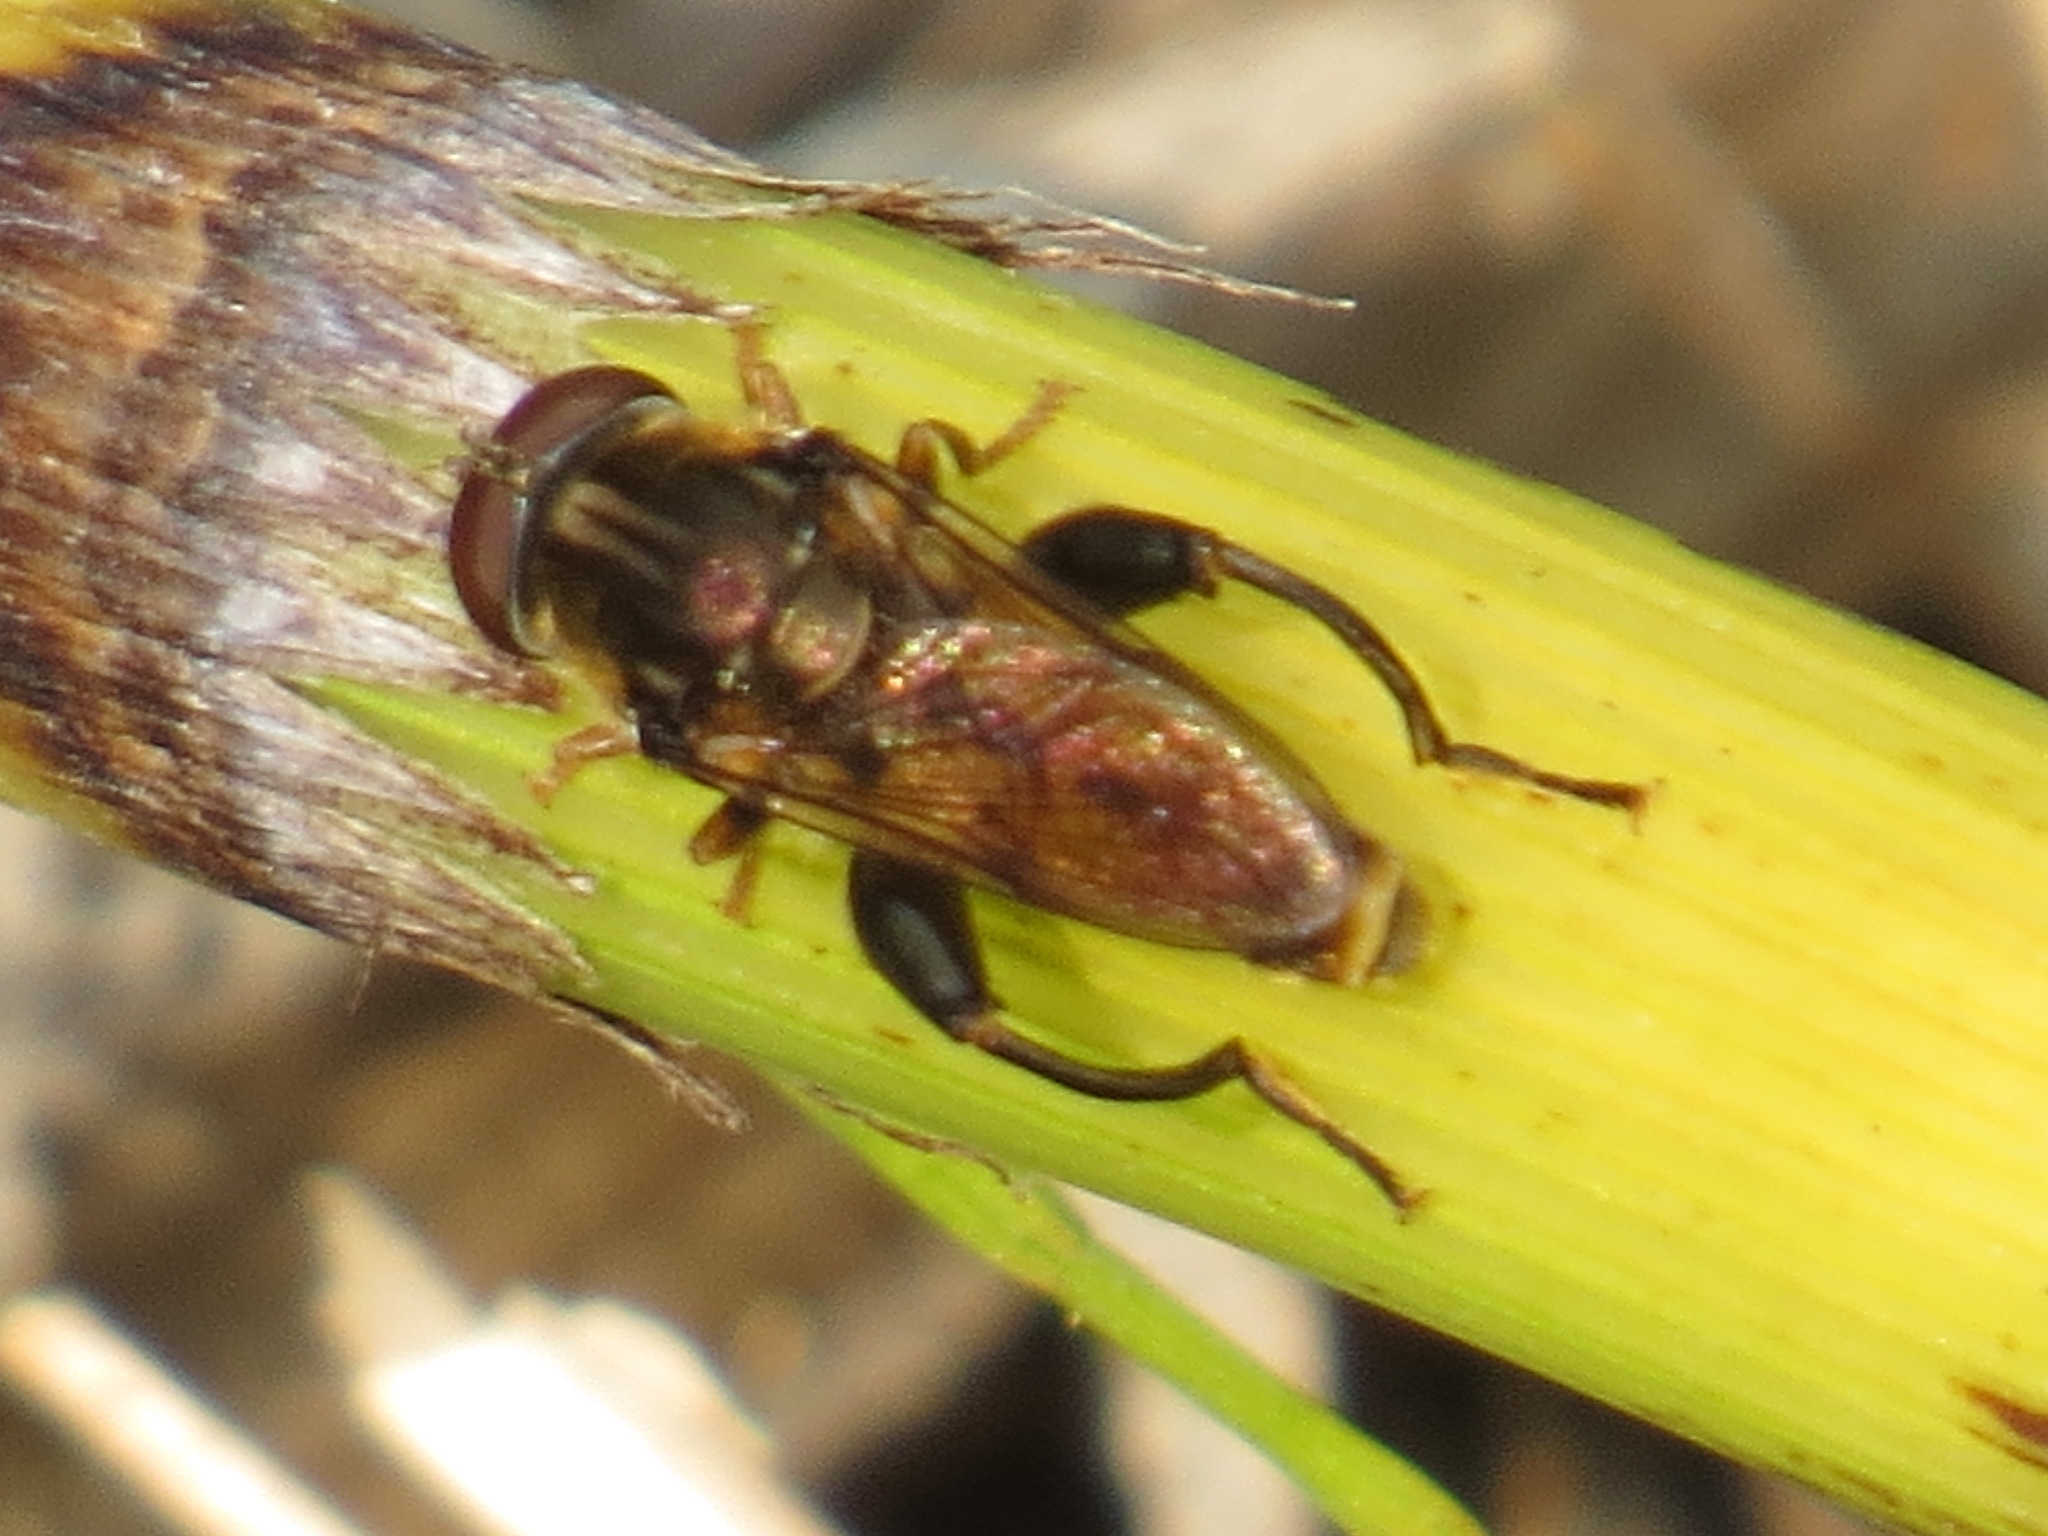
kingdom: Animalia
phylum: Arthropoda
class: Insecta
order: Diptera
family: Syrphidae
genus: Tropidia
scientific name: Tropidia quadrata
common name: Common thick-legged fly
